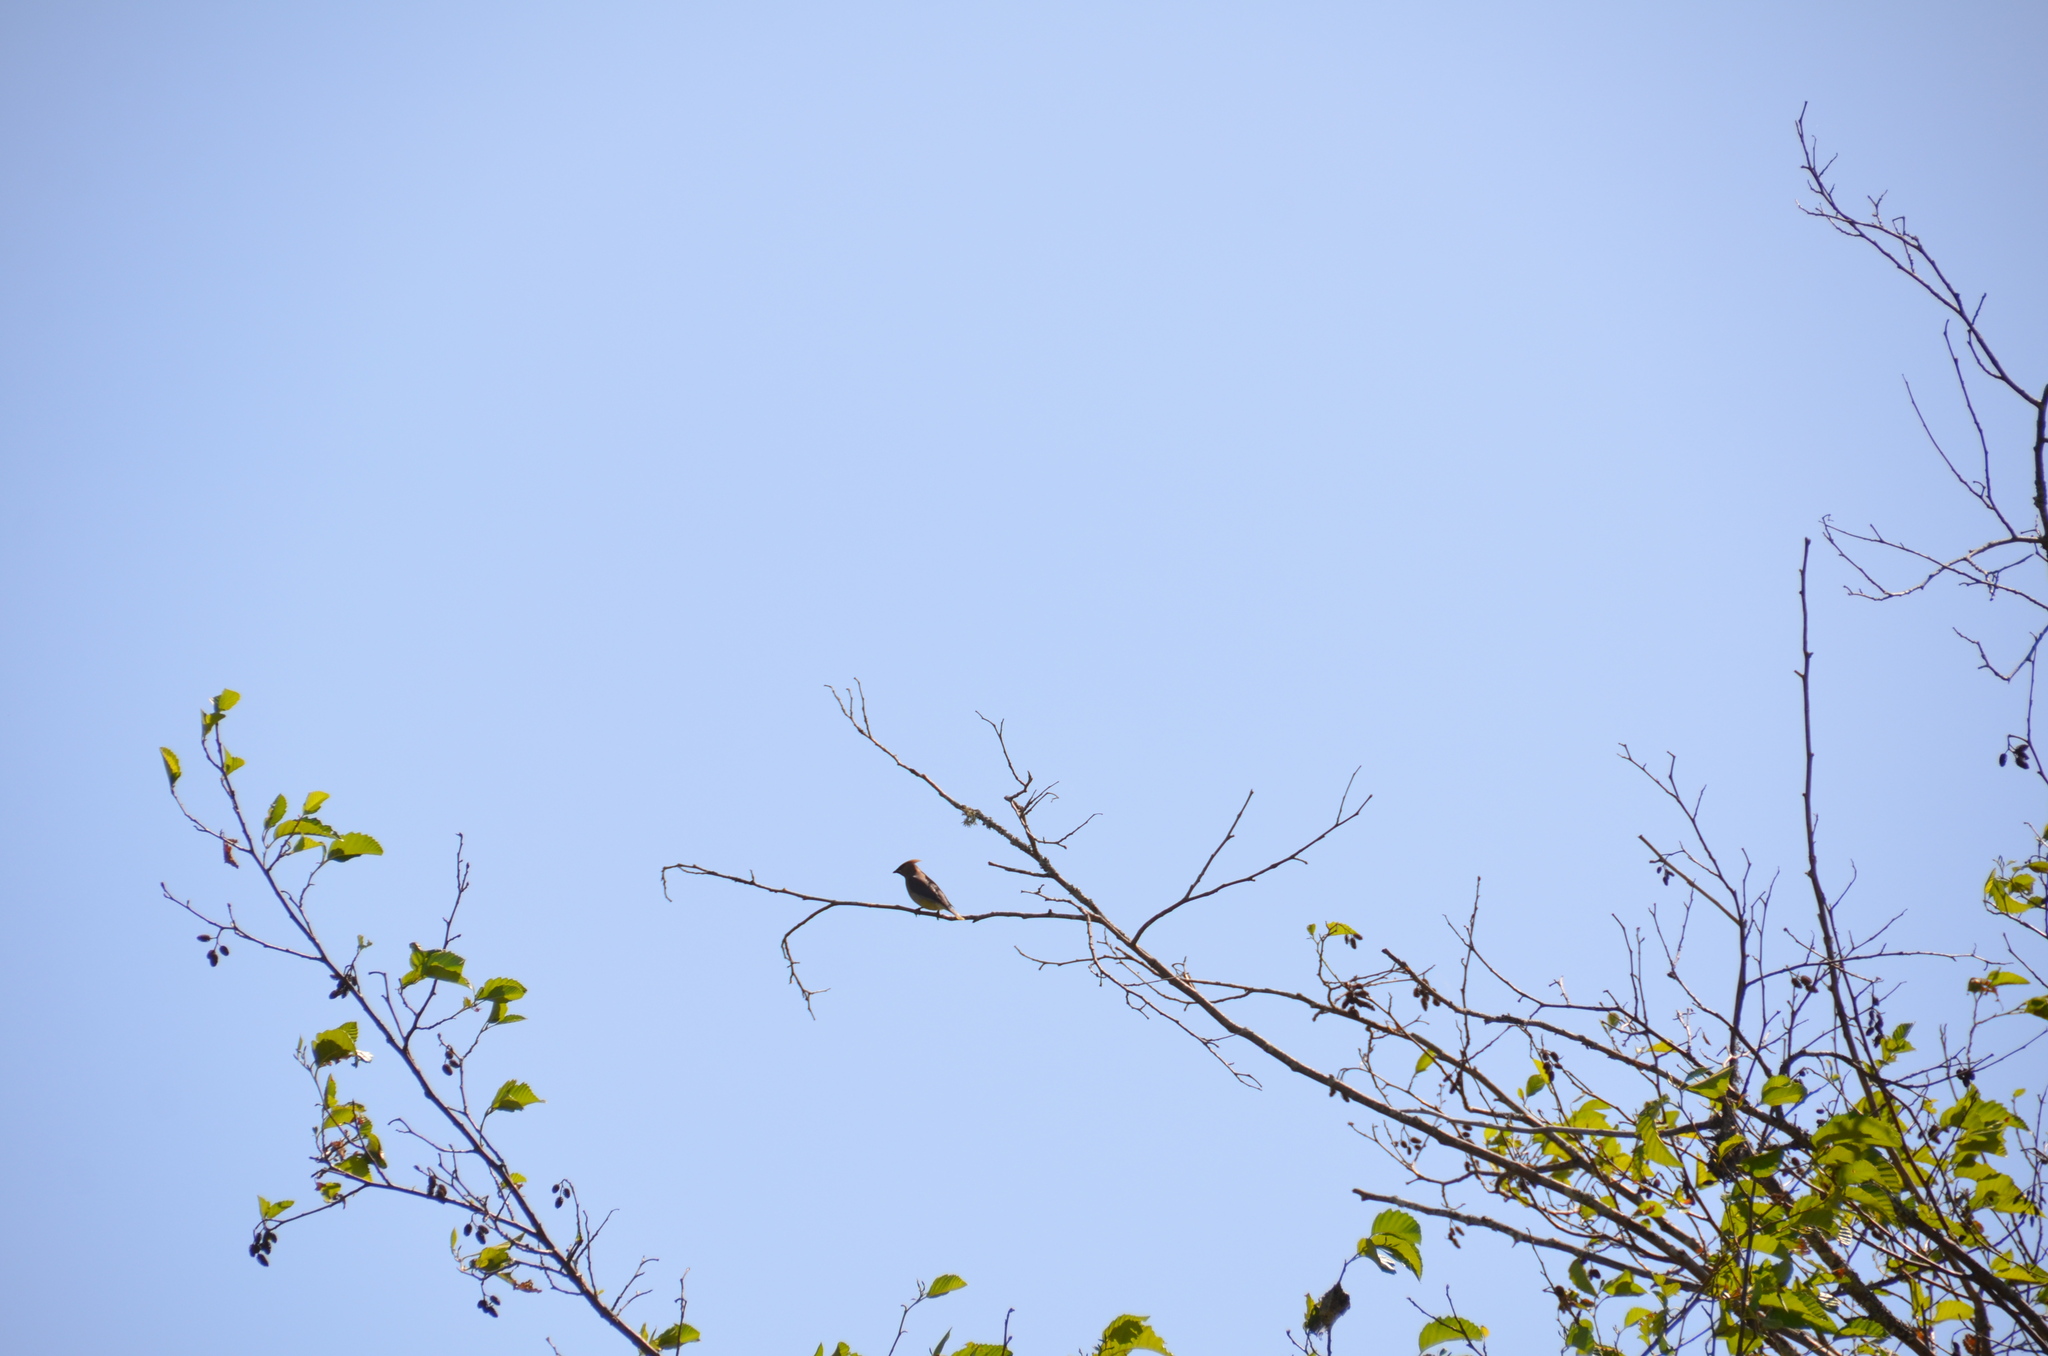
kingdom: Animalia
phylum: Chordata
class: Aves
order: Passeriformes
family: Bombycillidae
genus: Bombycilla
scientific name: Bombycilla cedrorum
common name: Cedar waxwing
